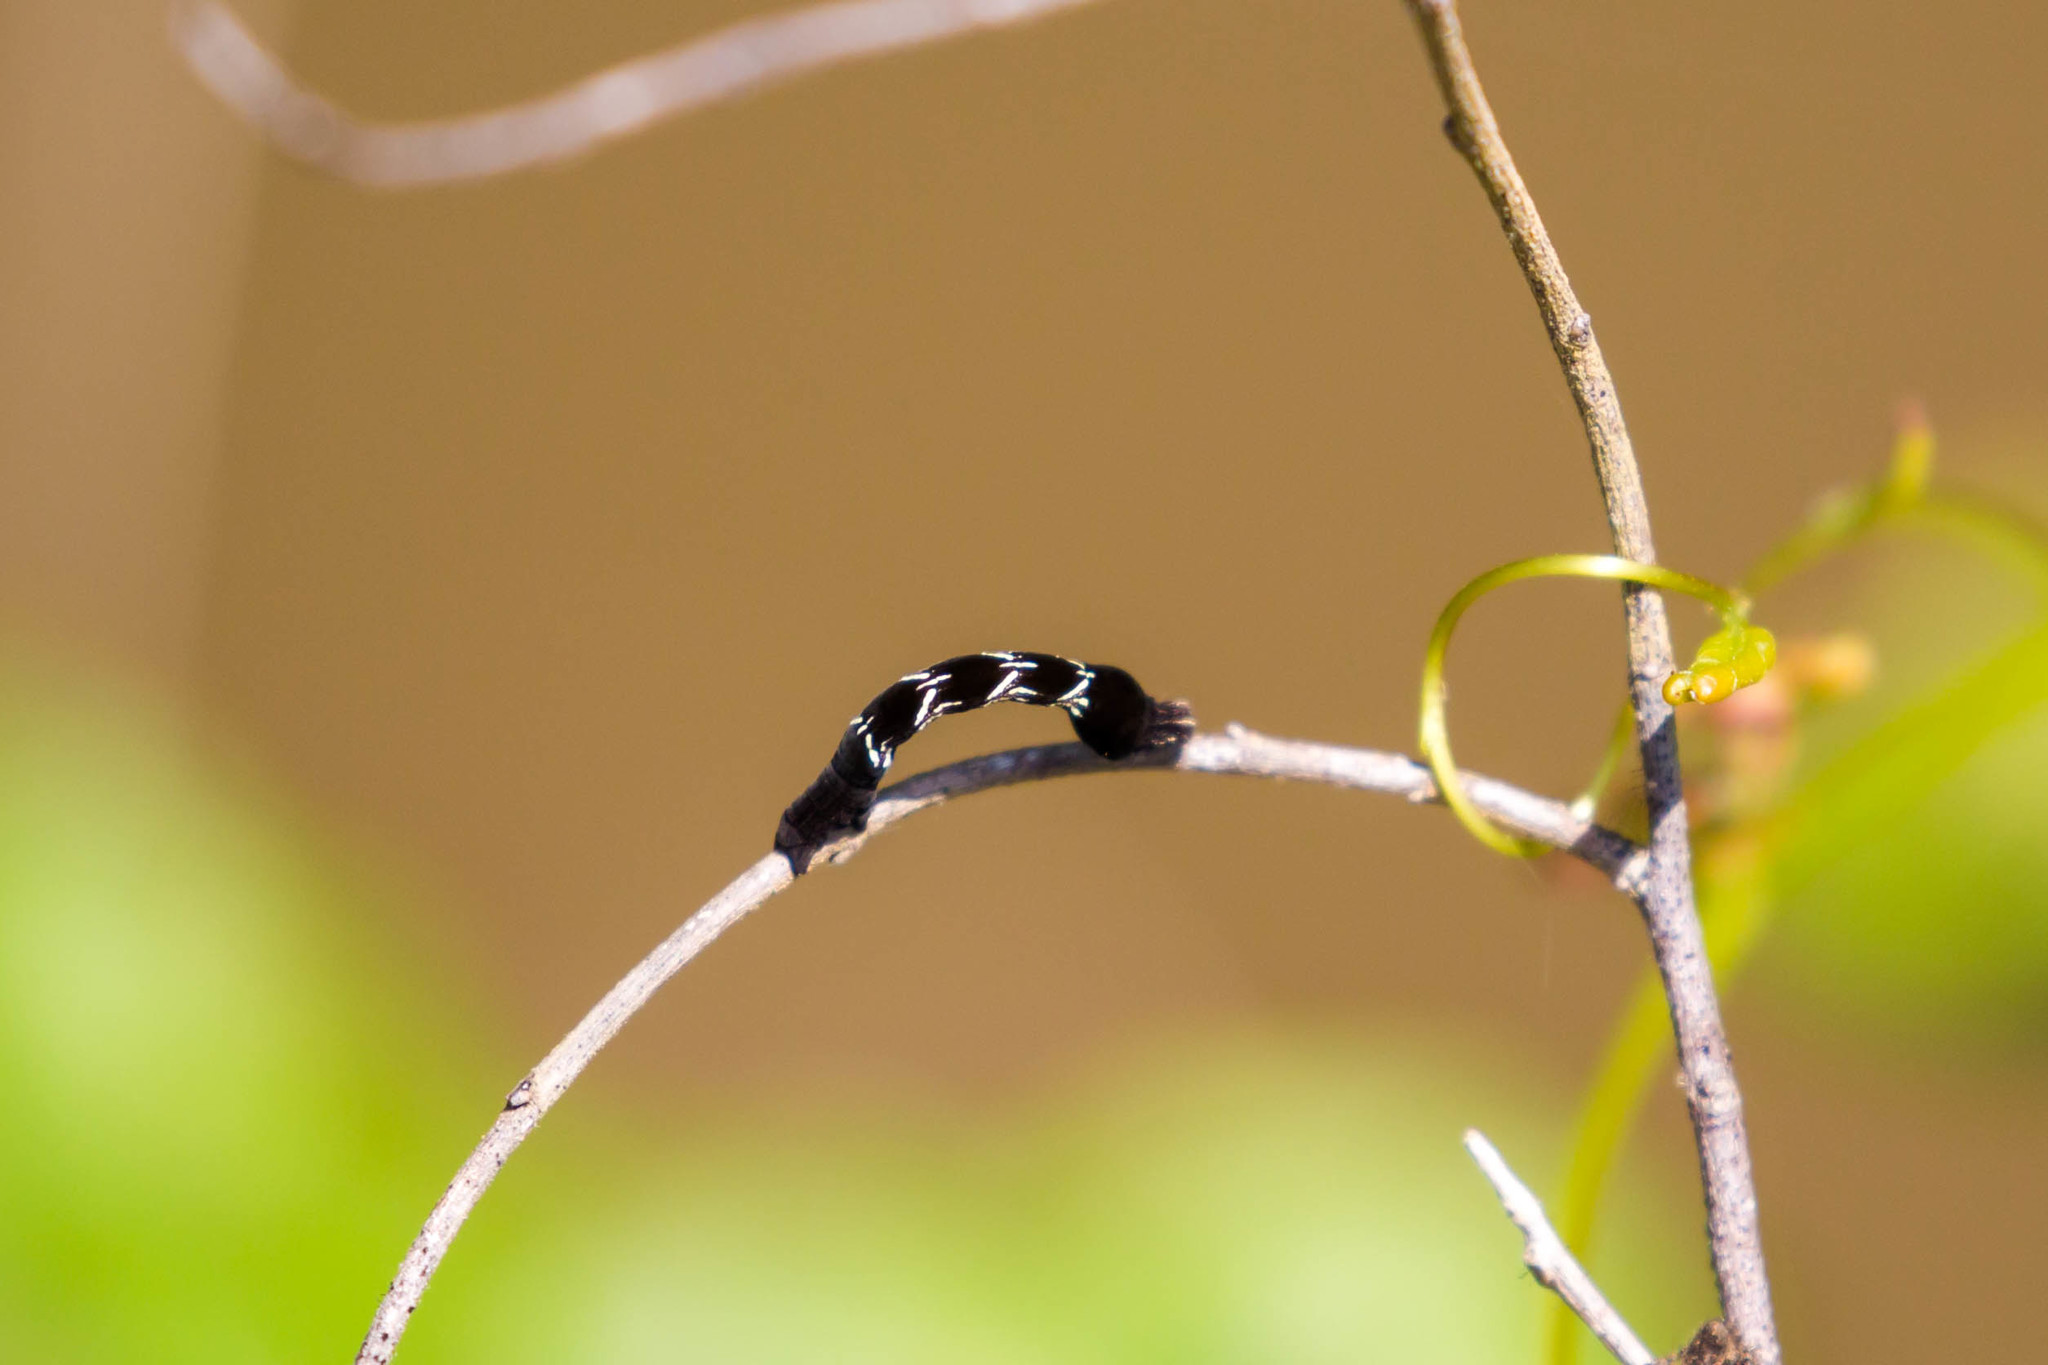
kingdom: Animalia
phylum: Arthropoda
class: Insecta
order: Lepidoptera
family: Geometridae
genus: Timandra
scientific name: Timandra amaturaria
